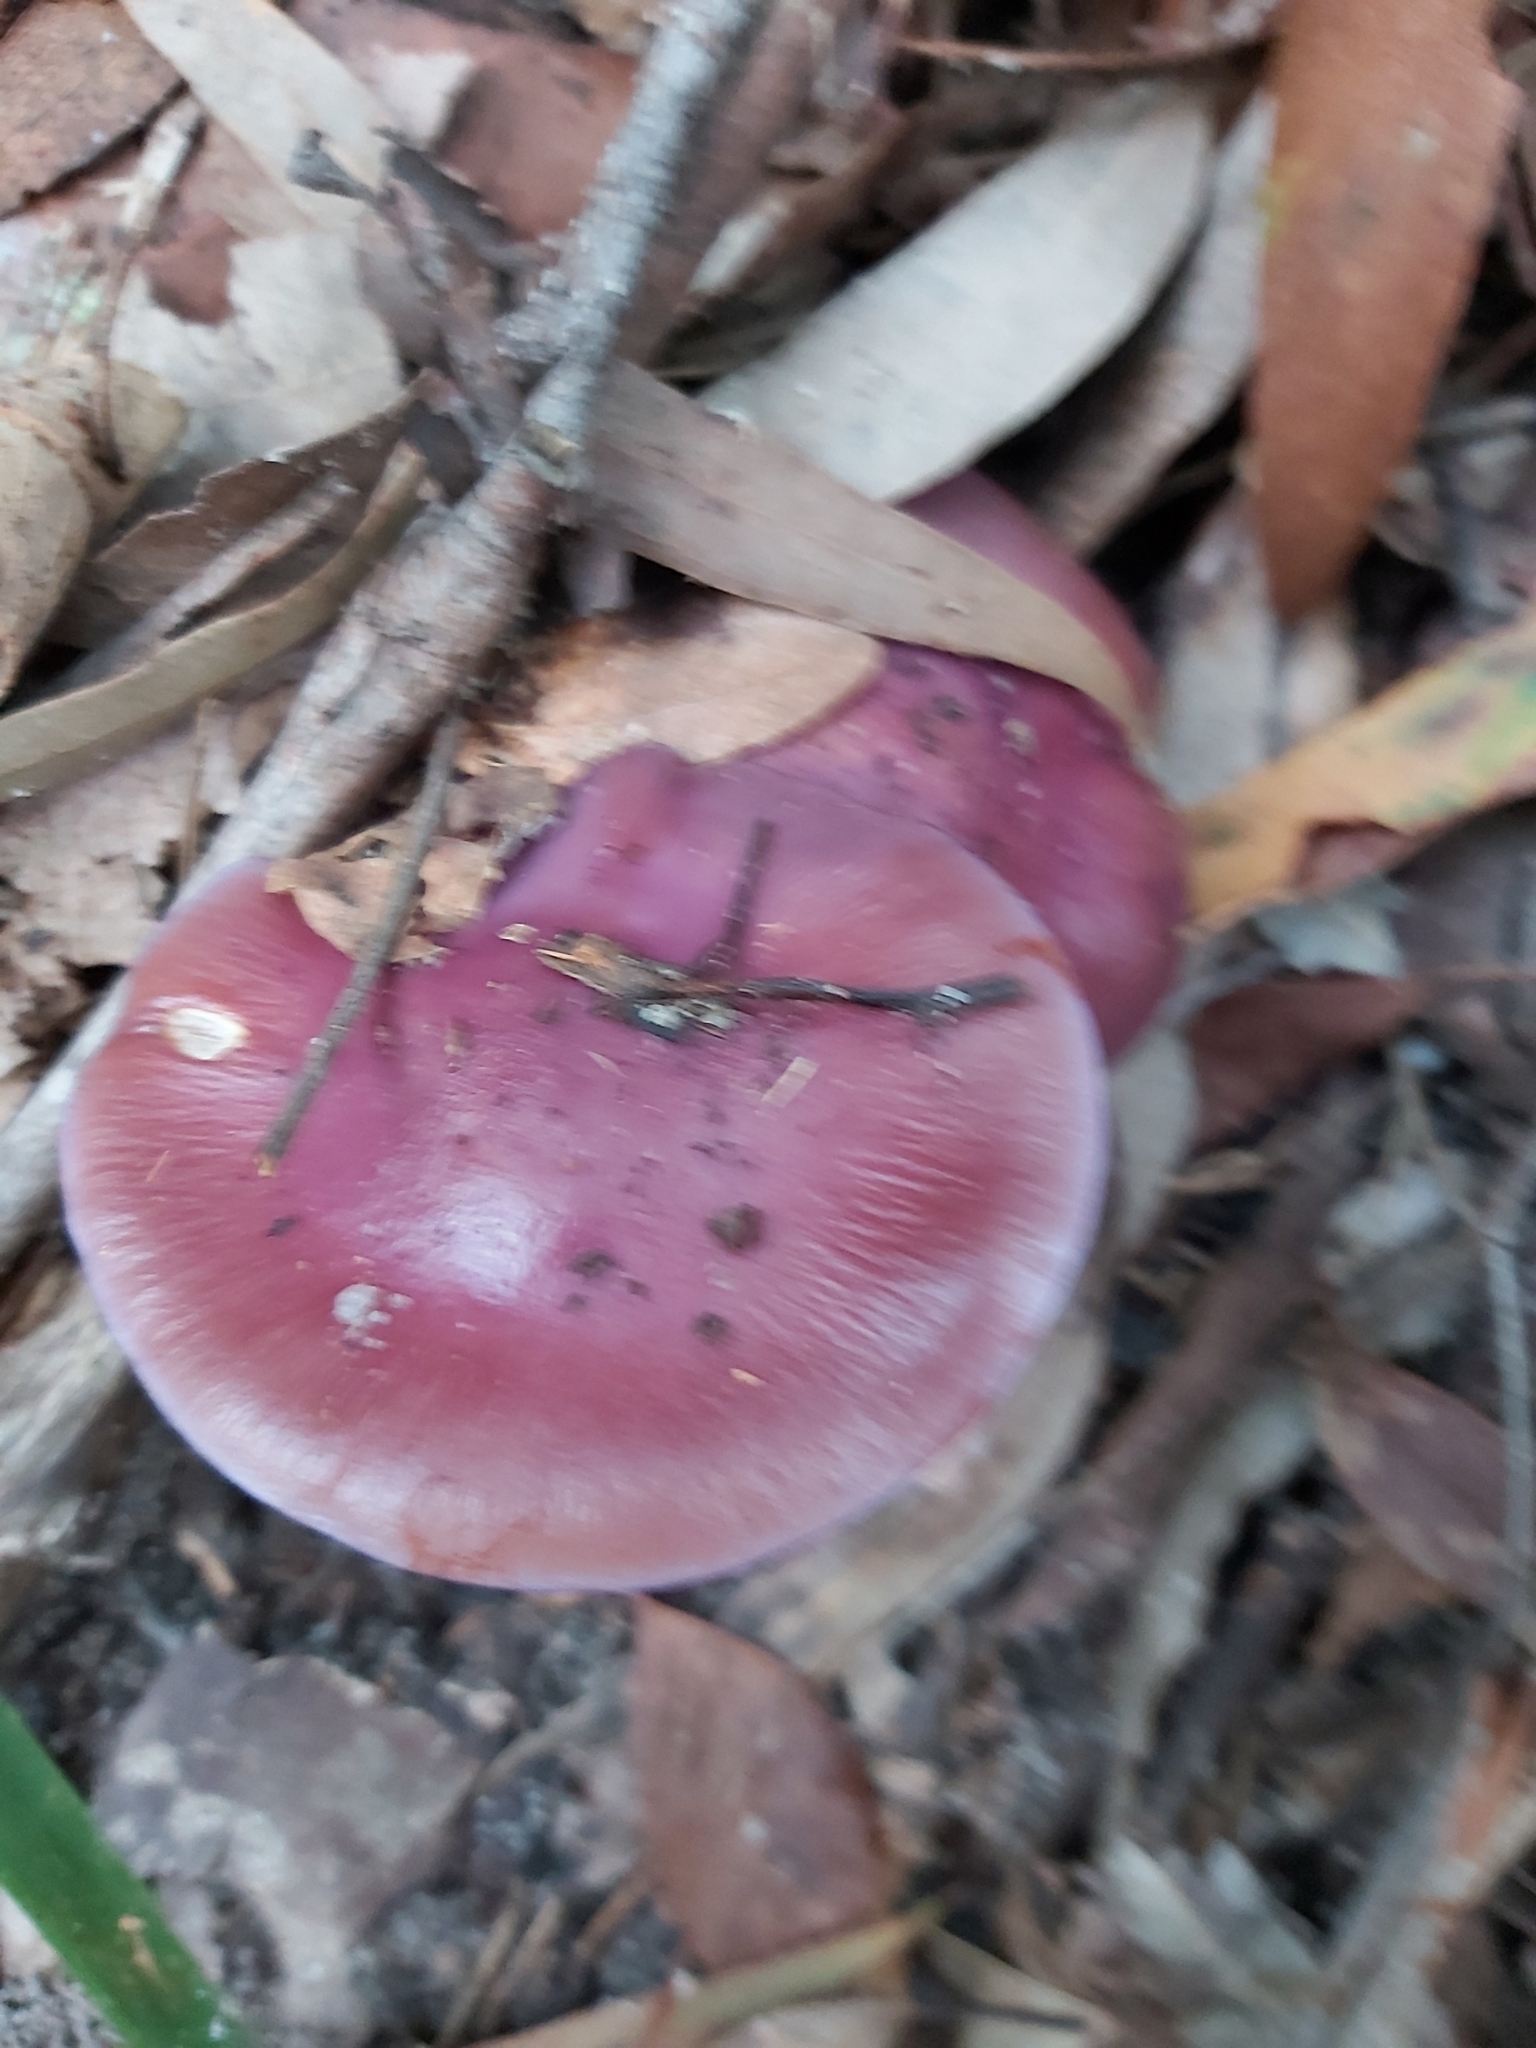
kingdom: Fungi
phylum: Basidiomycota
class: Agaricomycetes
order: Agaricales
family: Cortinariaceae
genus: Cortinarius
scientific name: Cortinarius archeri
